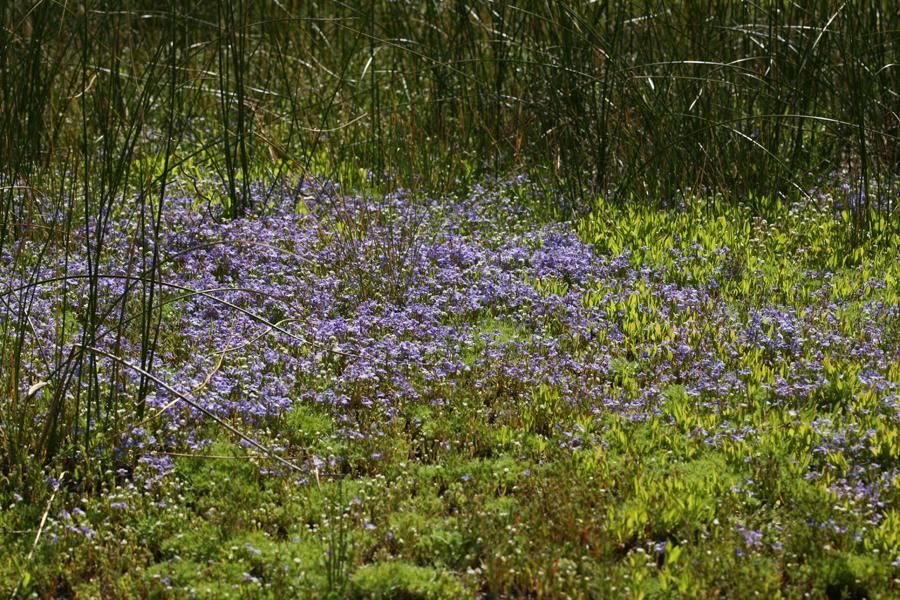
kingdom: Plantae
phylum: Tracheophyta
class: Magnoliopsida
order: Asterales
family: Campanulaceae
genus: Downingia
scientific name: Downingia bicornuta
